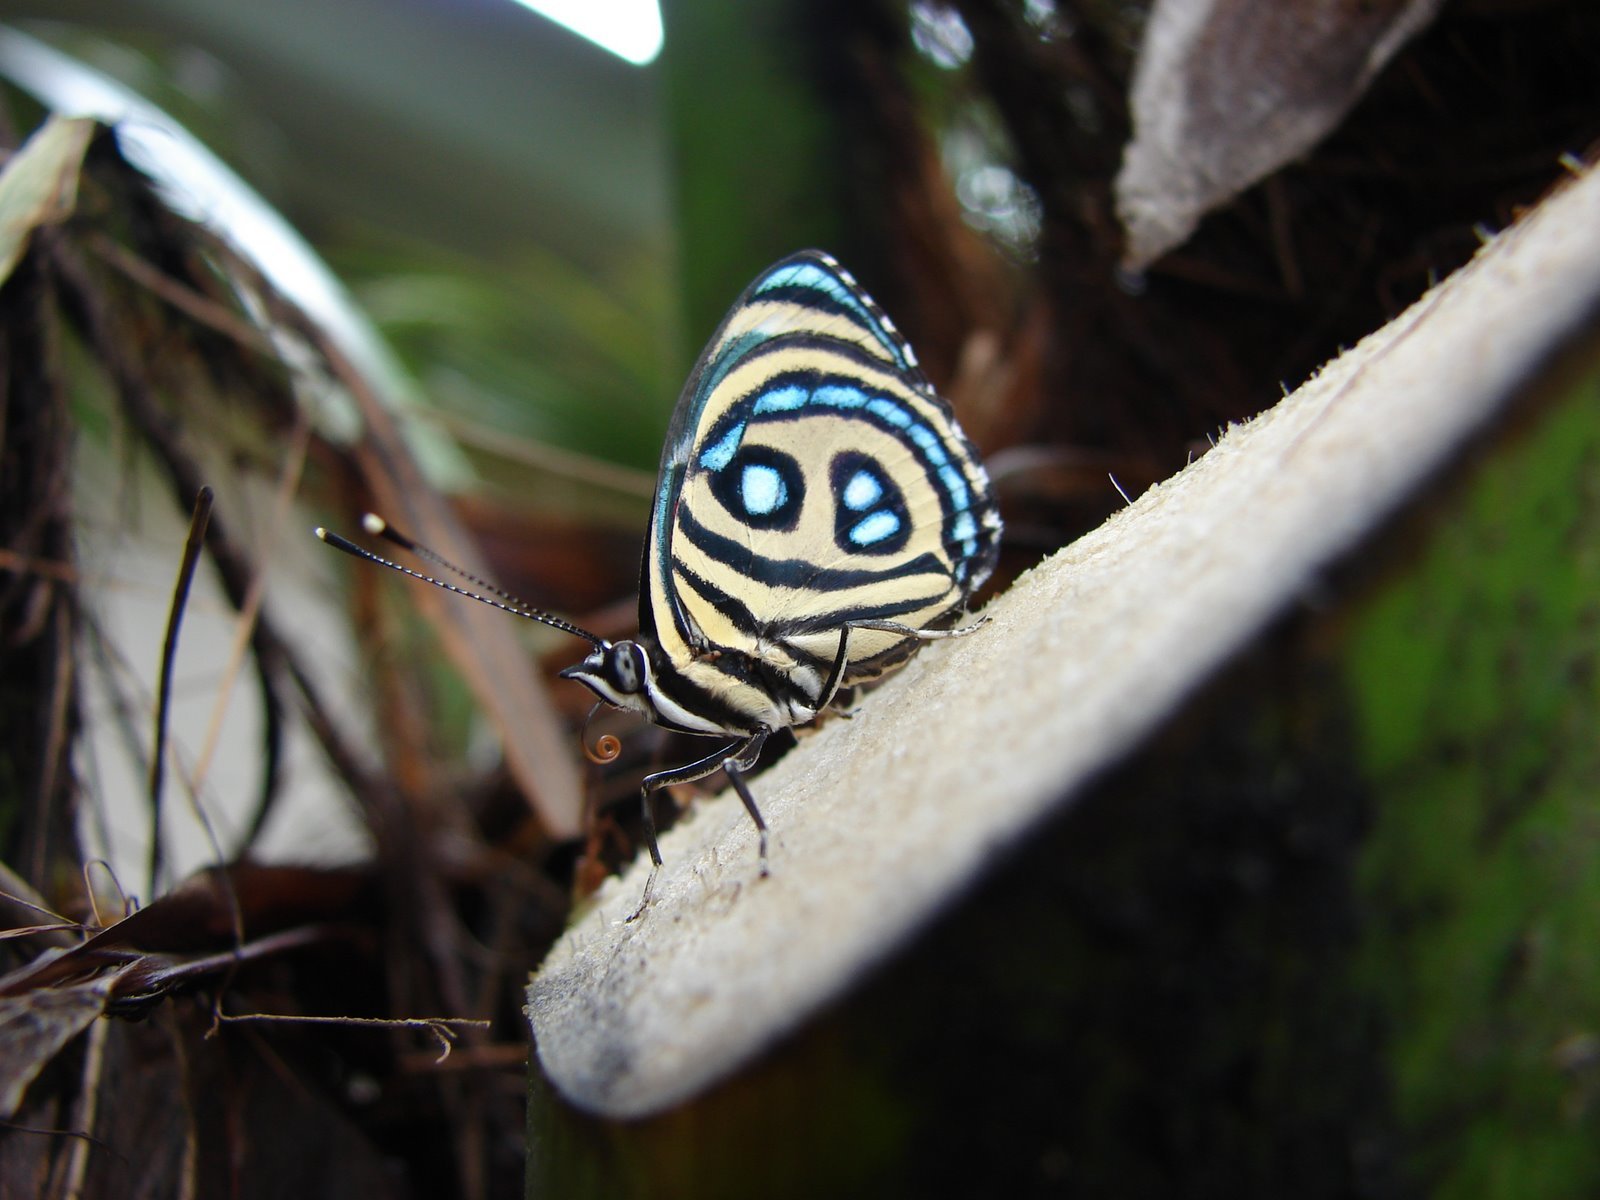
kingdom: Animalia
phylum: Arthropoda
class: Insecta
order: Lepidoptera
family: Nymphalidae
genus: Catagramma
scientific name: Catagramma pyracmon
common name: Google-eyed eighty-eight
